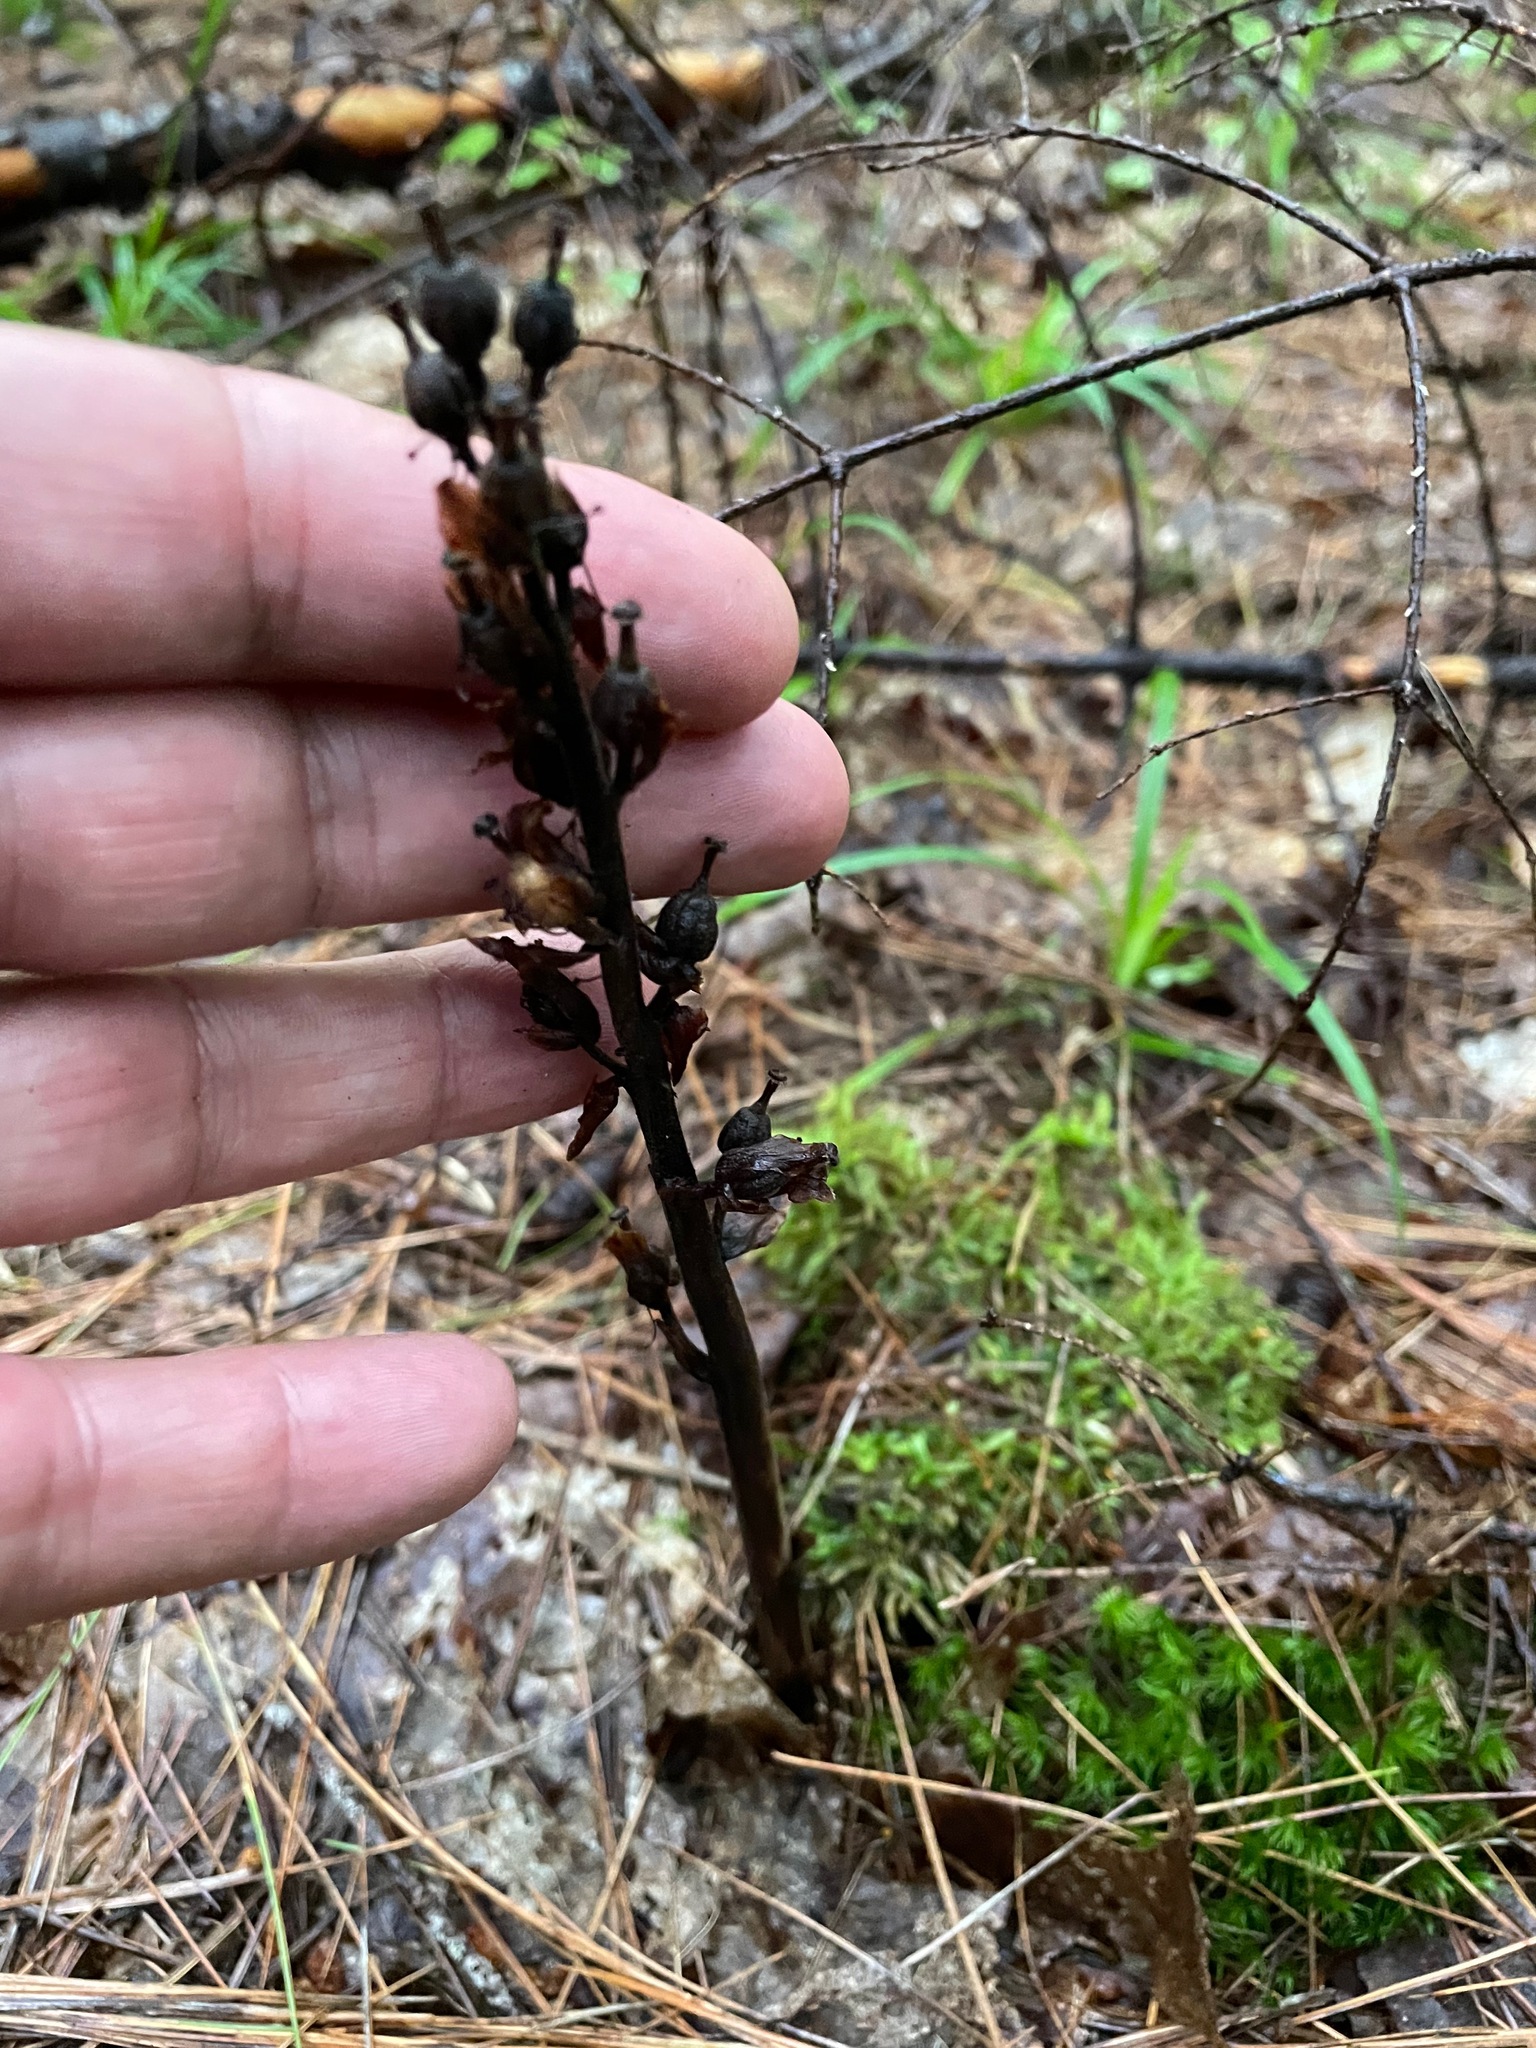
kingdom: Plantae
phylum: Tracheophyta
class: Magnoliopsida
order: Ericales
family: Ericaceae
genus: Hypopitys
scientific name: Hypopitys monotropa
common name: Yellow bird's-nest
